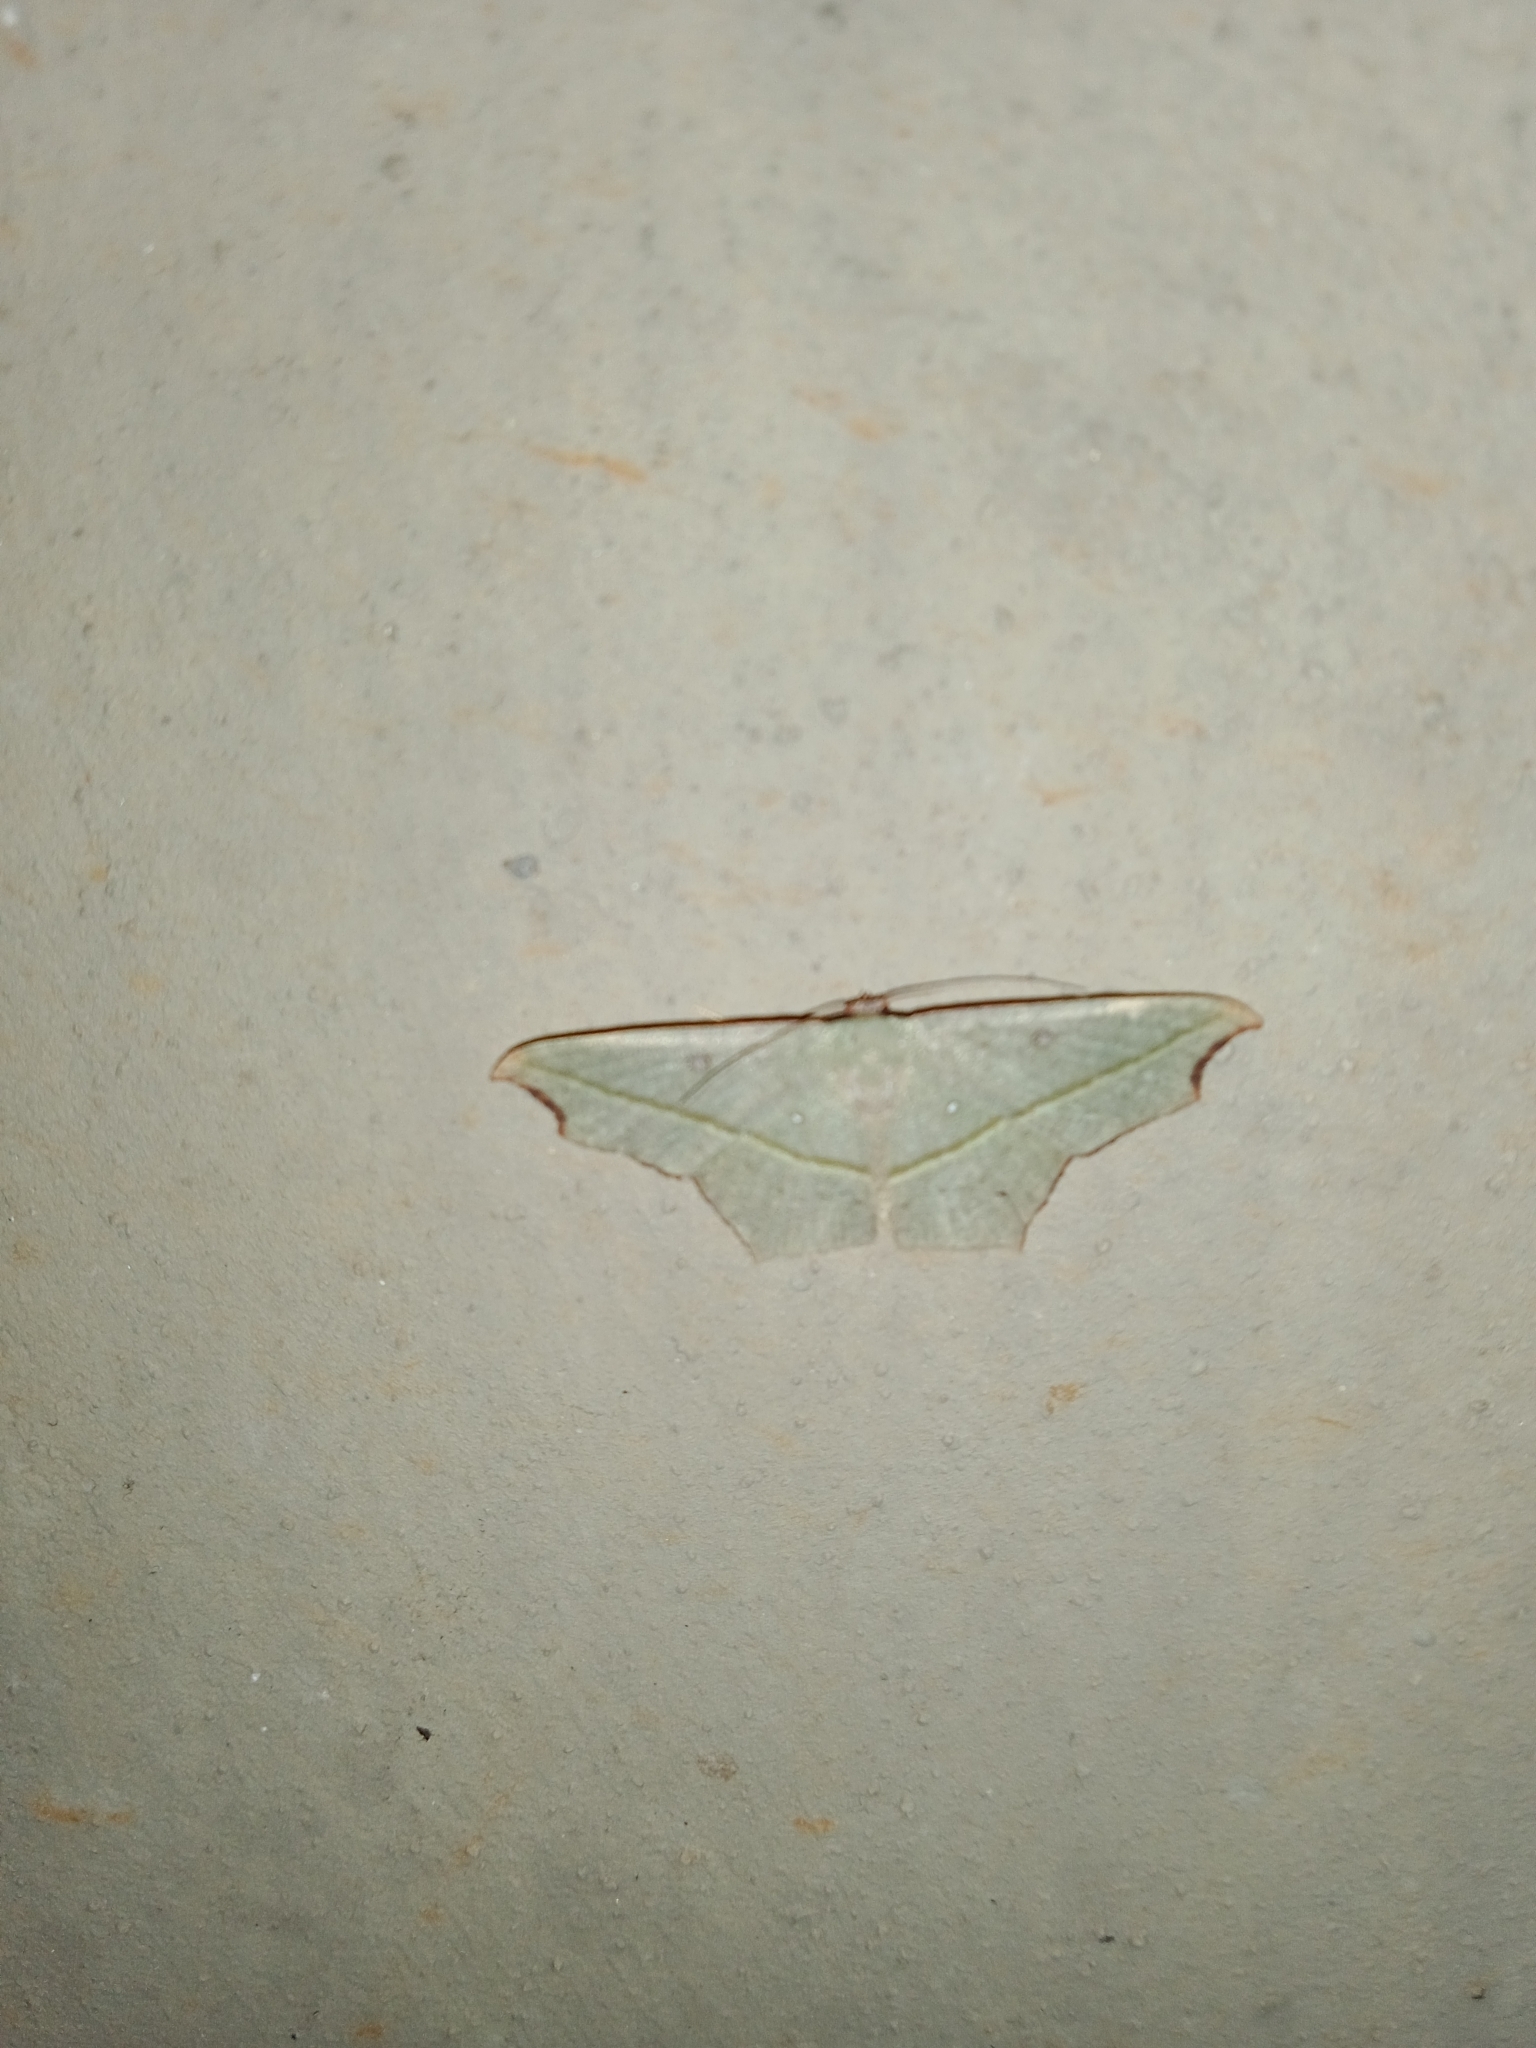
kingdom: Animalia
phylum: Arthropoda
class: Insecta
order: Lepidoptera
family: Geometridae
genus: Traminda
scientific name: Traminda aventiaria
